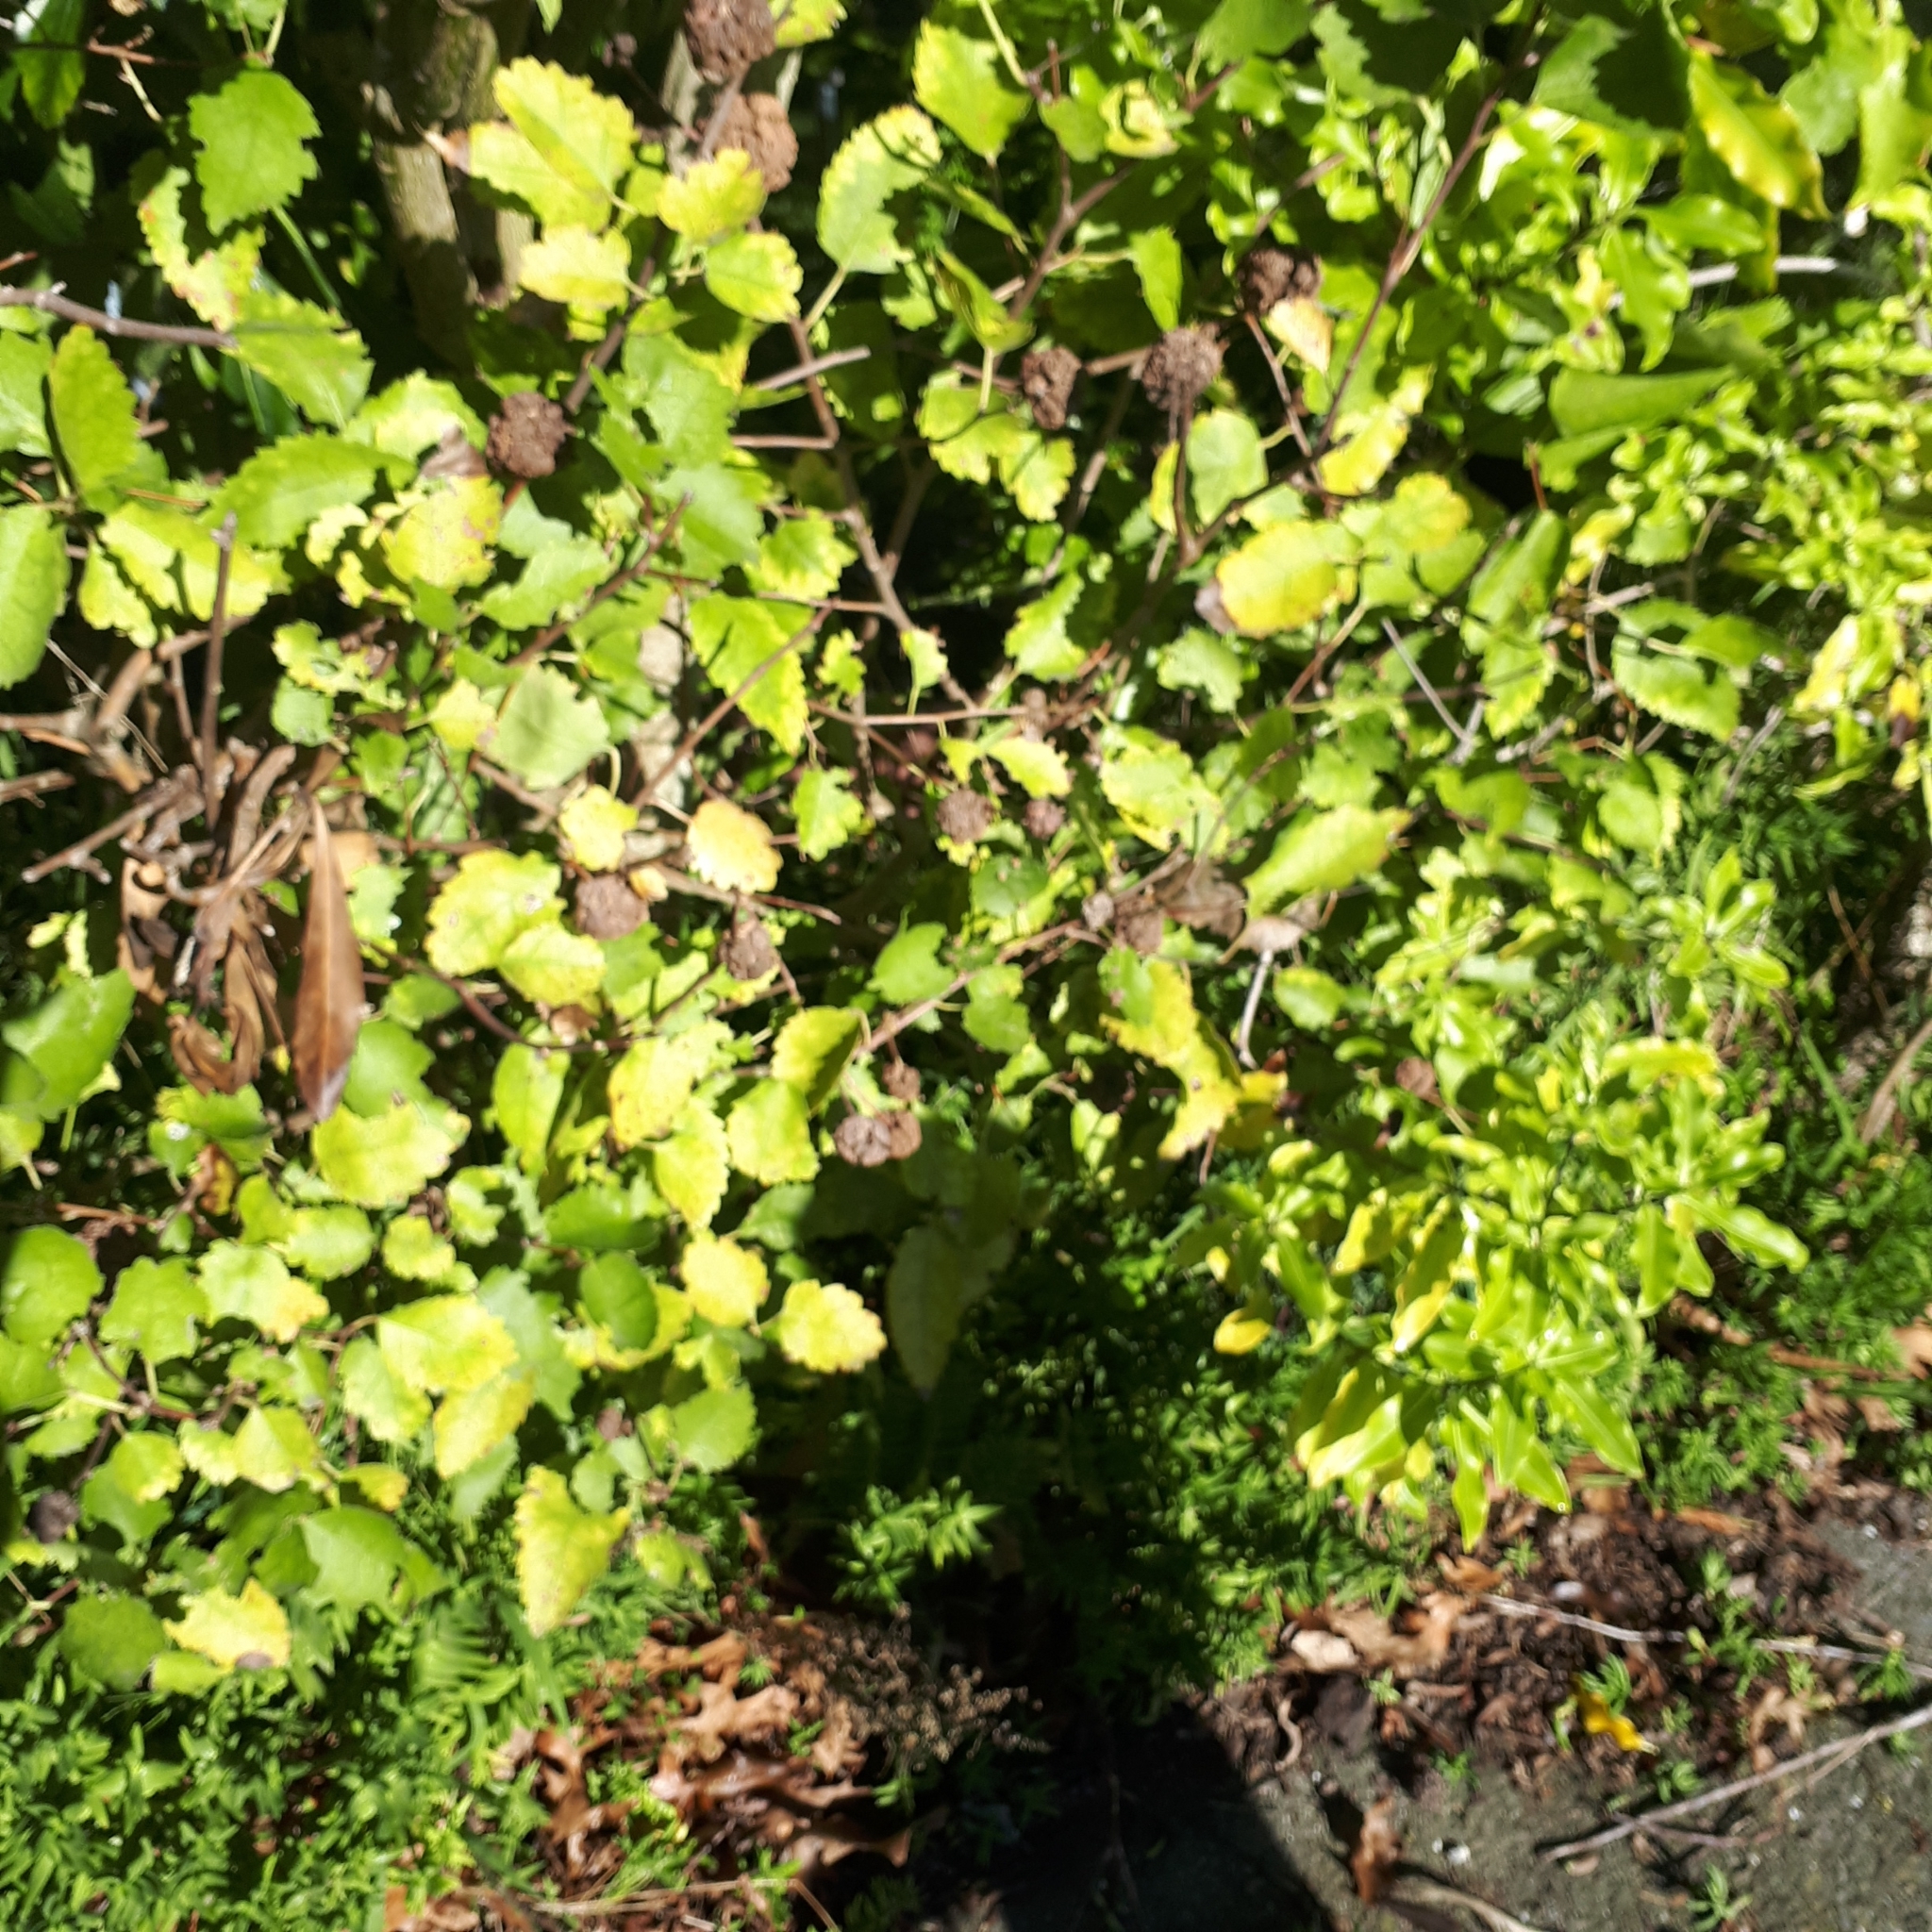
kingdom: Animalia
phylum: Arthropoda
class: Arachnida
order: Trombidiformes
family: Eriophyidae
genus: Eriophyes
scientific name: Eriophyes hoheriae
